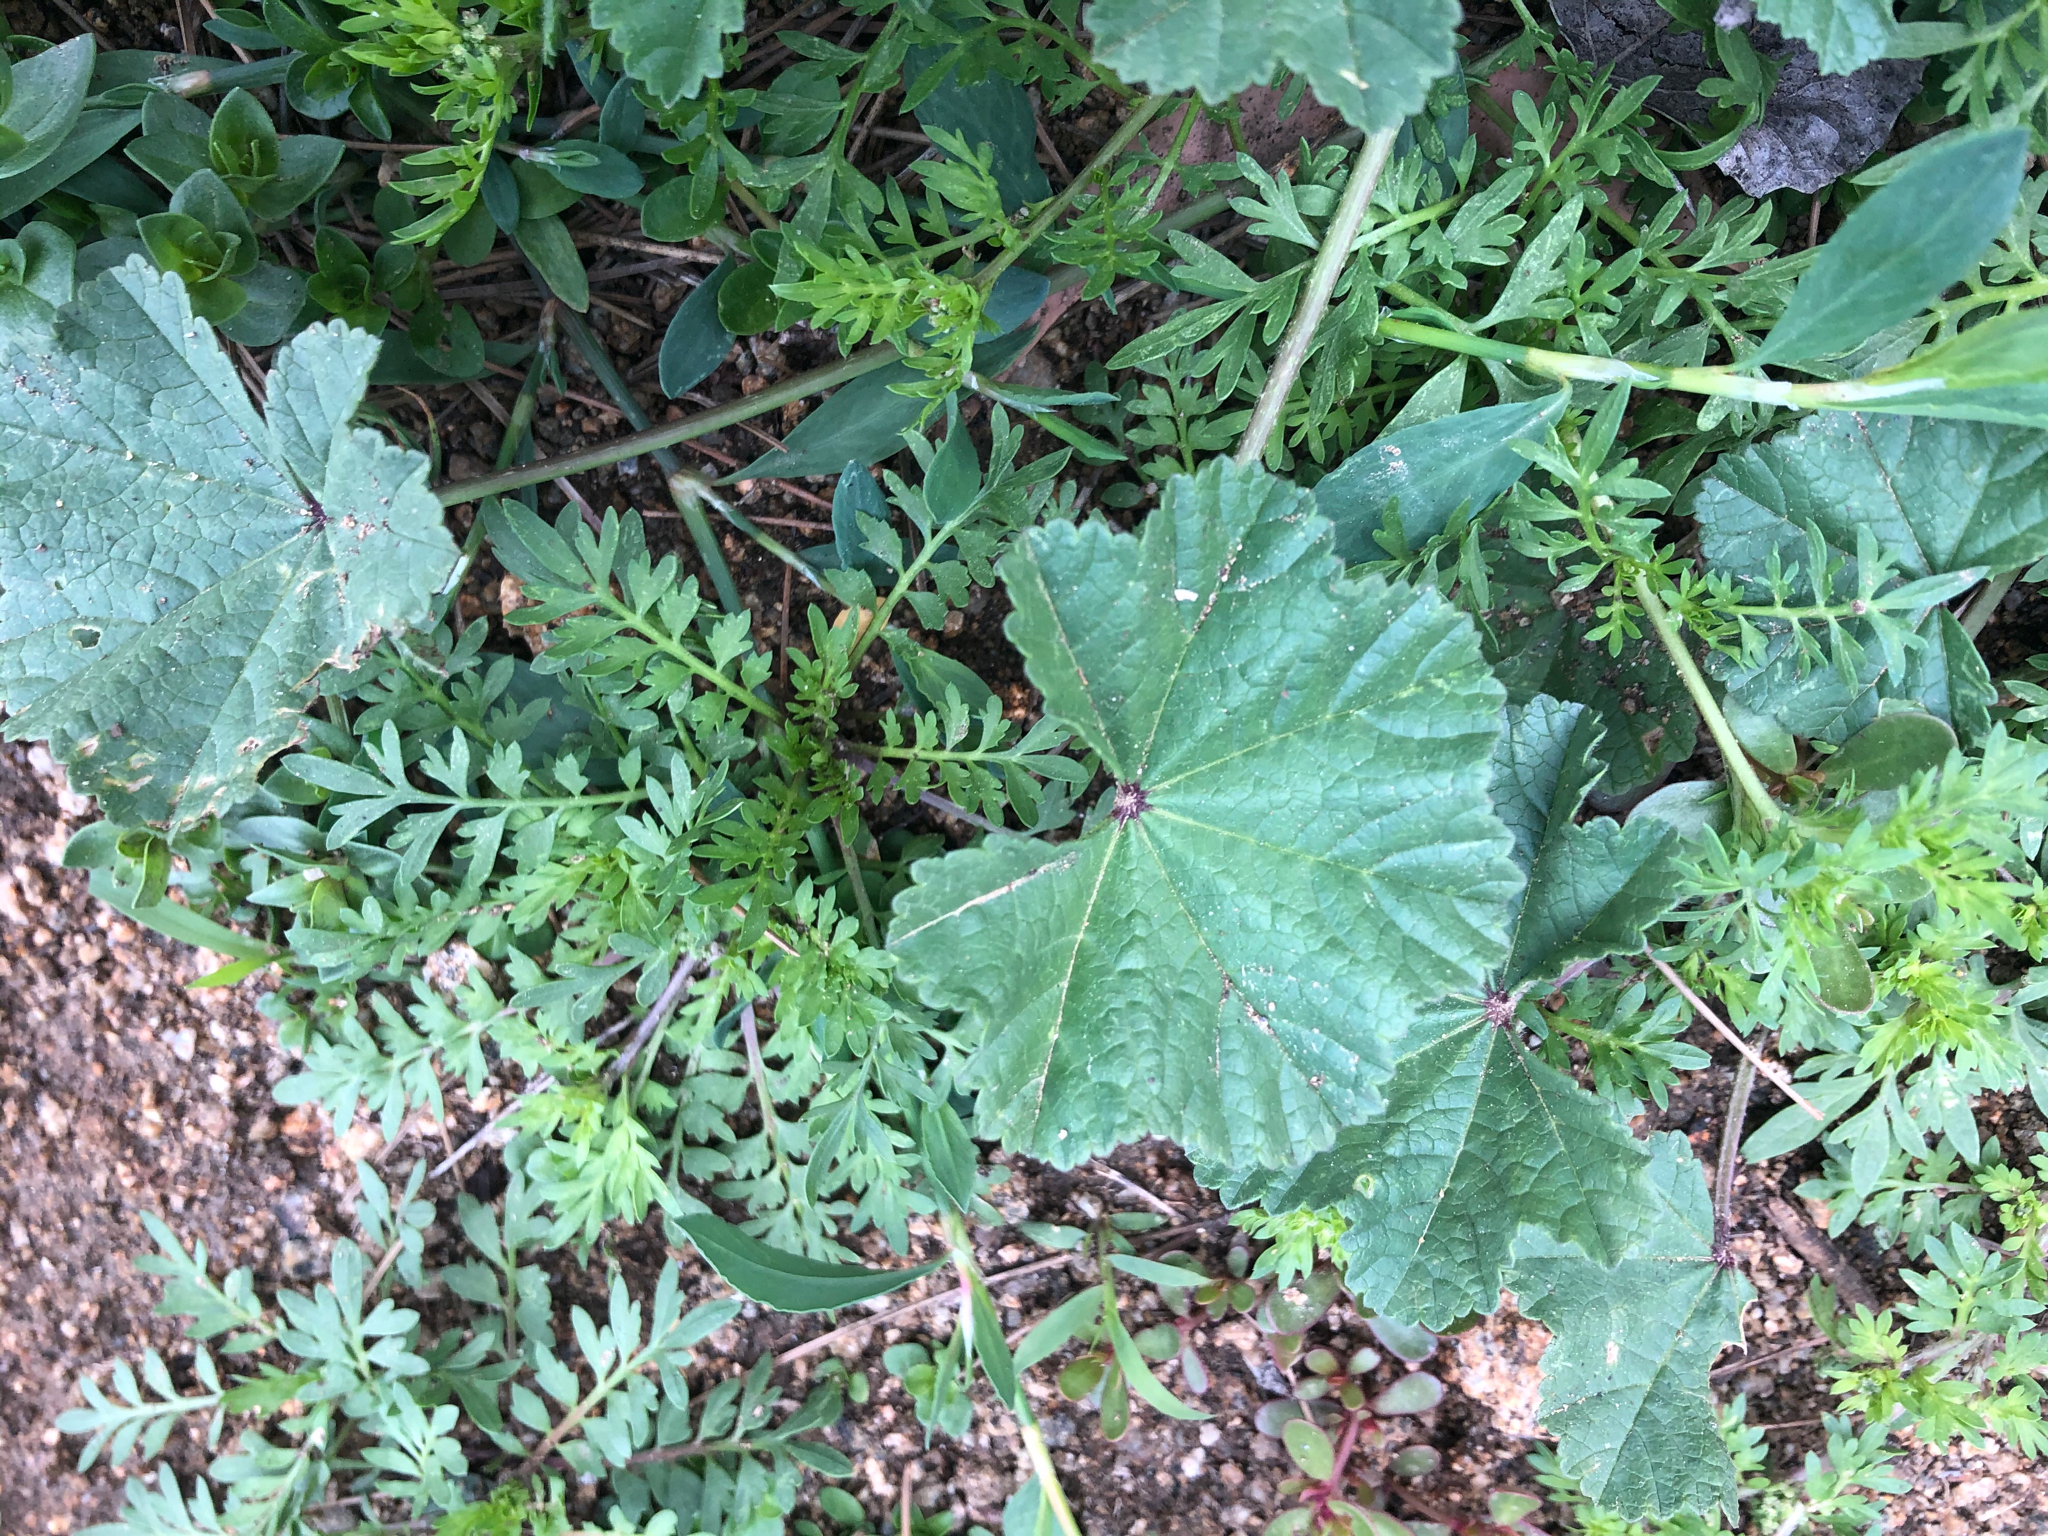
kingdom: Plantae
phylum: Tracheophyta
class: Magnoliopsida
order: Malvales
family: Malvaceae
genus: Malva
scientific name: Malva
